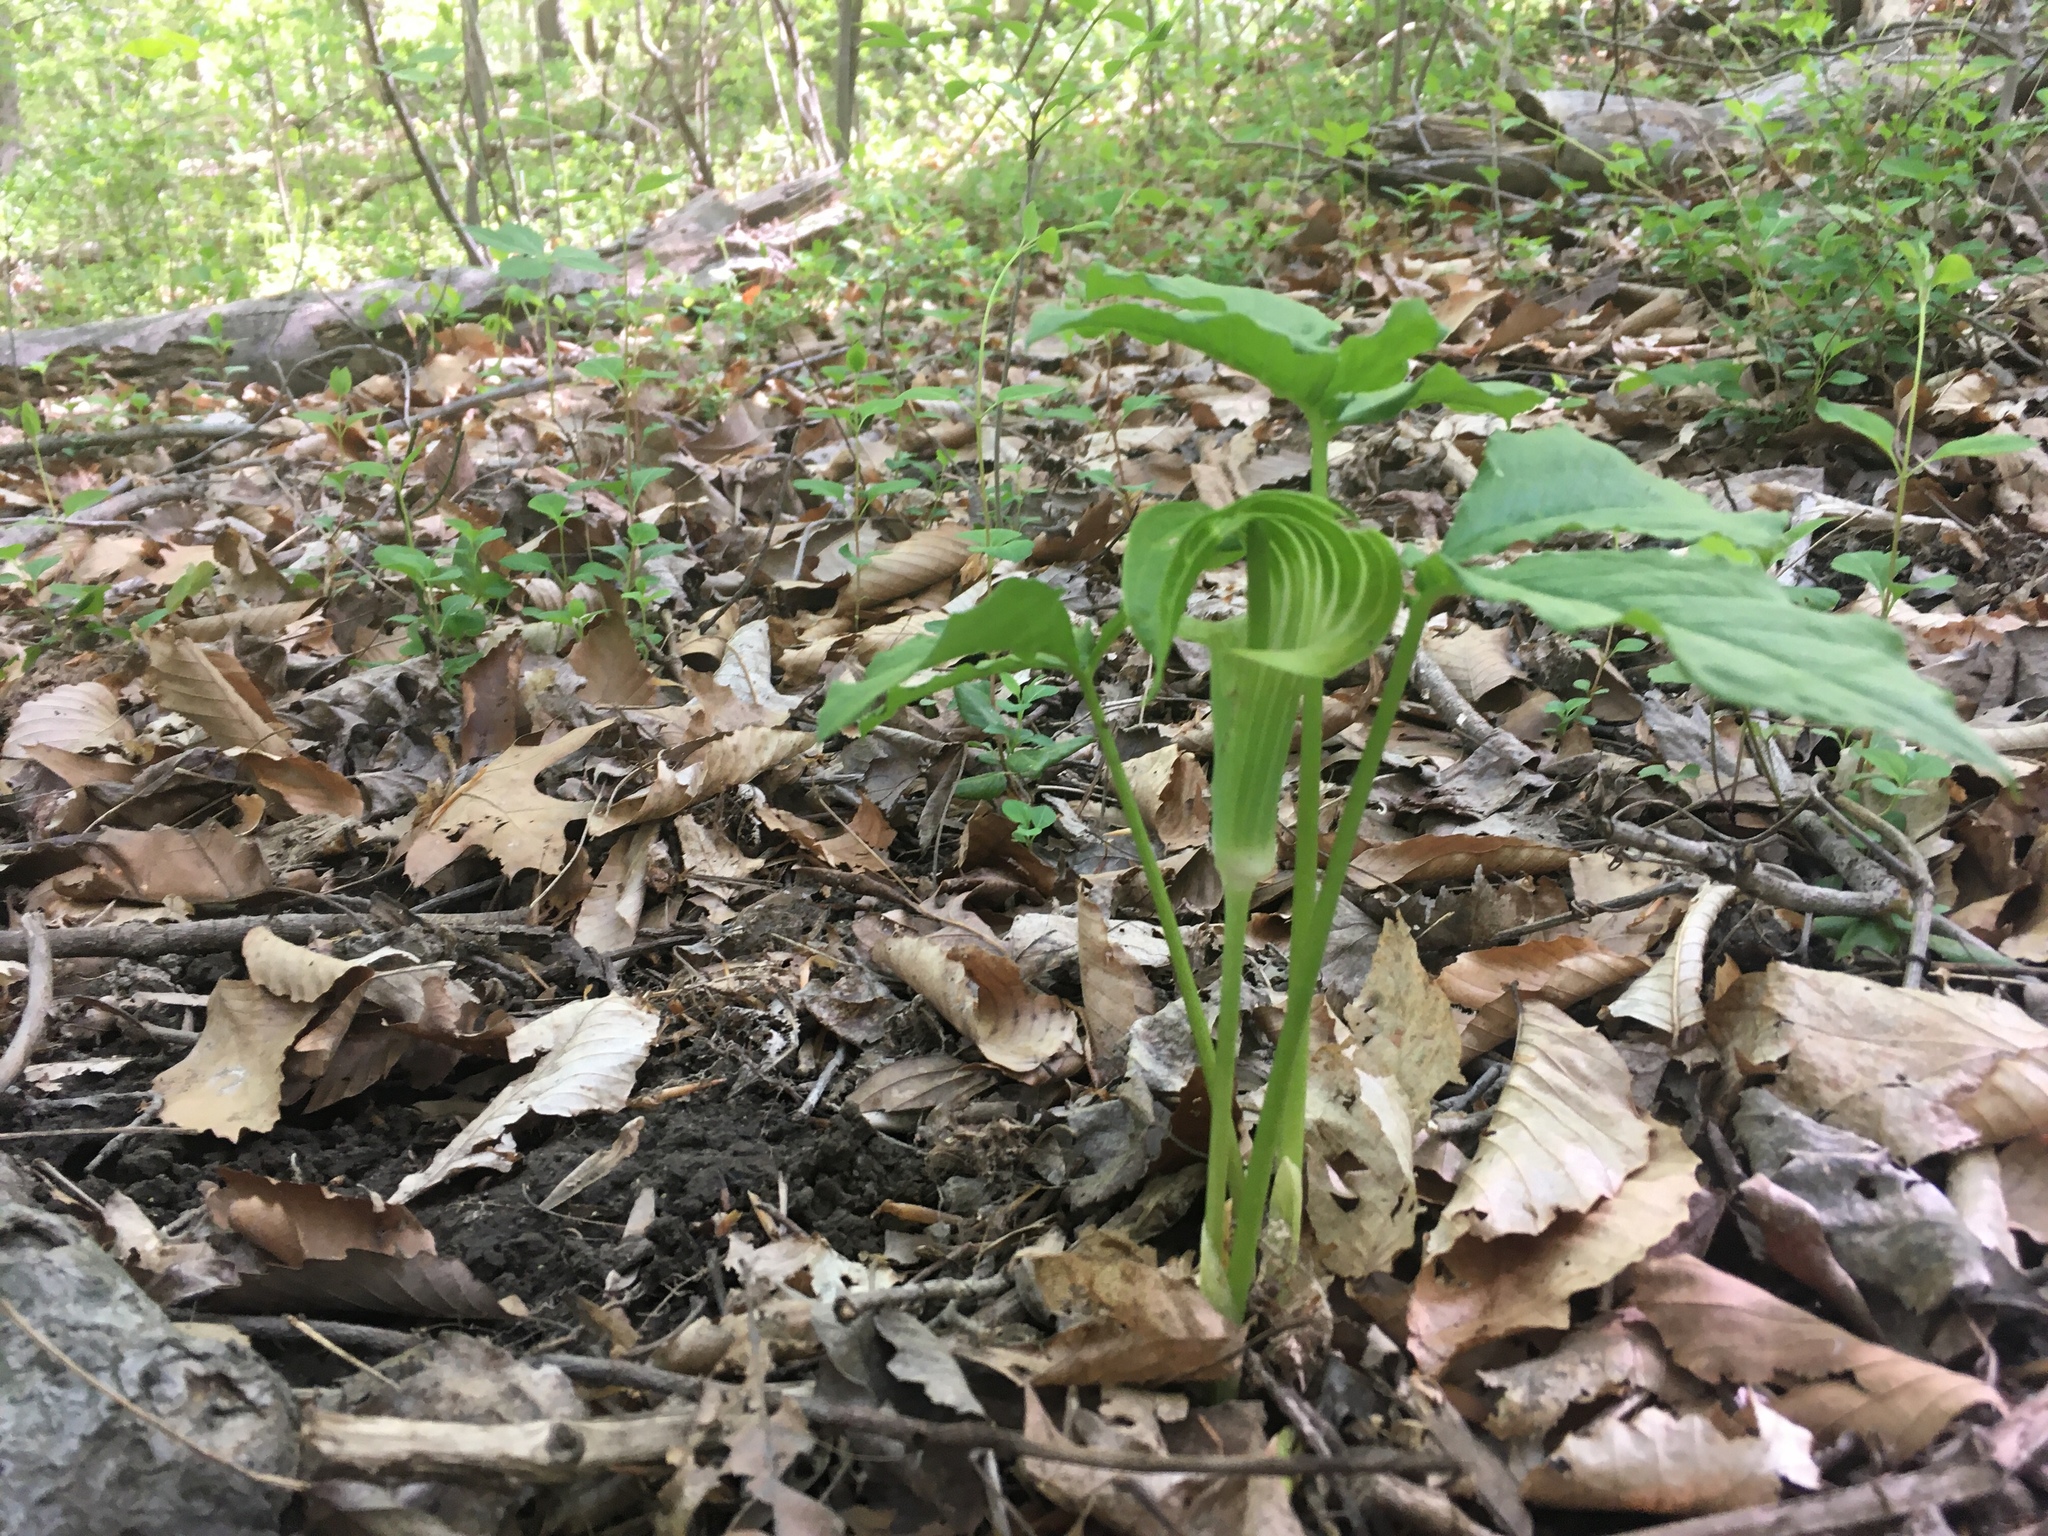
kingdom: Plantae
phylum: Tracheophyta
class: Liliopsida
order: Alismatales
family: Araceae
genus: Arisaema
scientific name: Arisaema triphyllum
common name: Jack-in-the-pulpit
